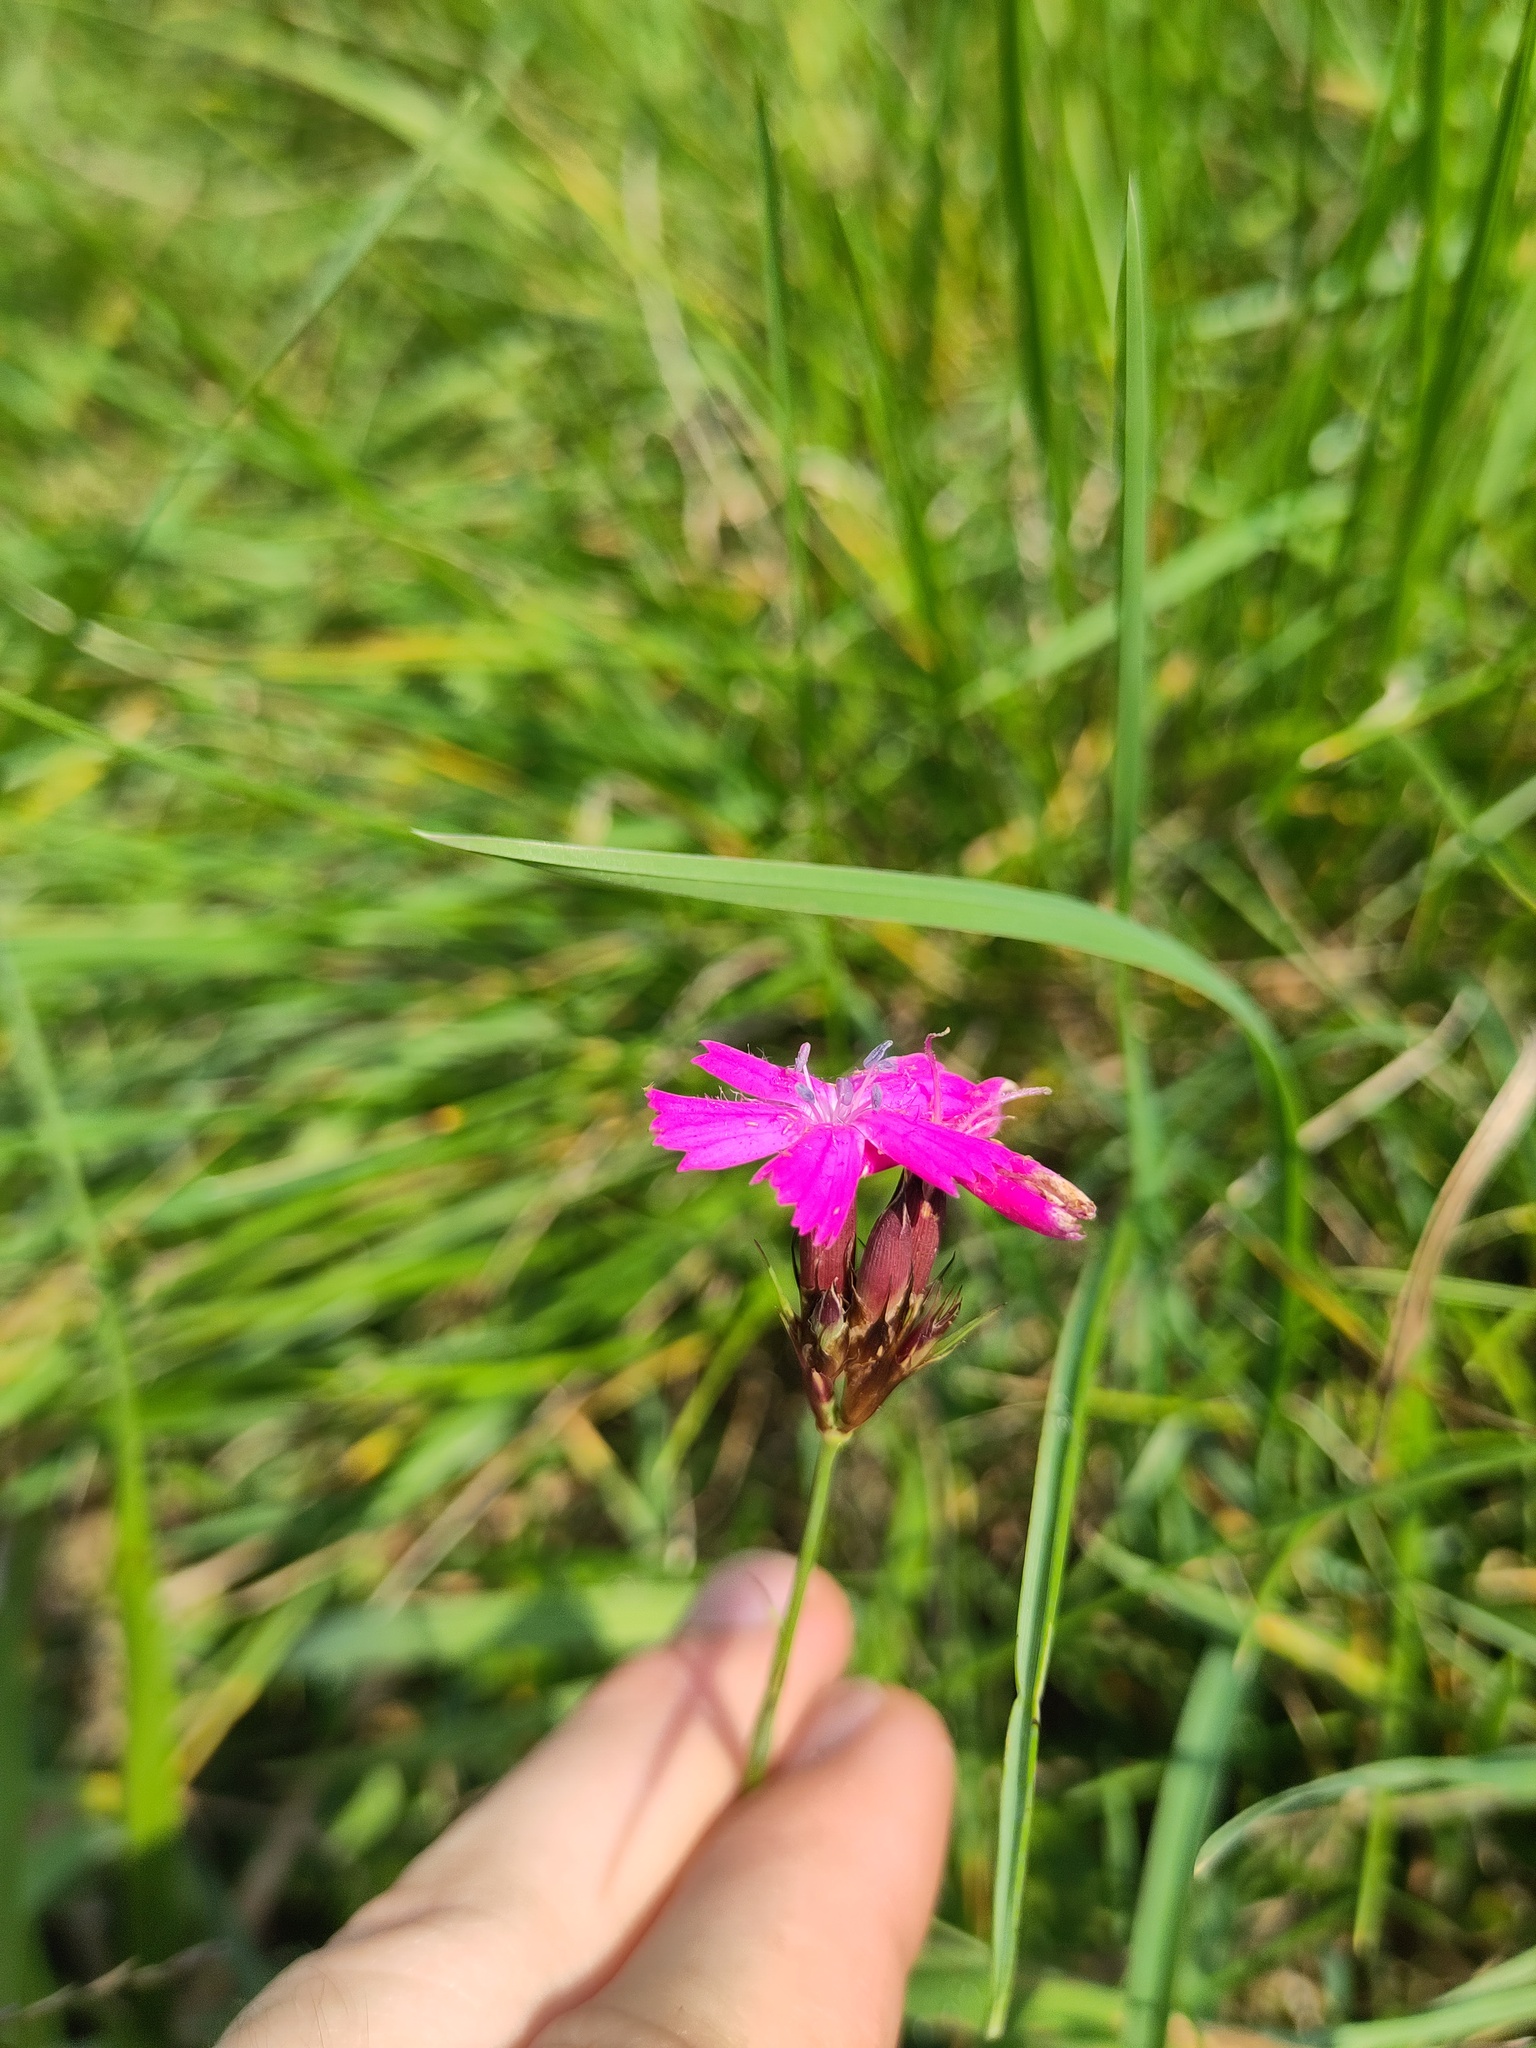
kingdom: Plantae
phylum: Tracheophyta
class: Magnoliopsida
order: Caryophyllales
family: Caryophyllaceae
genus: Dianthus
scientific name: Dianthus carthusianorum
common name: Carthusian pink
